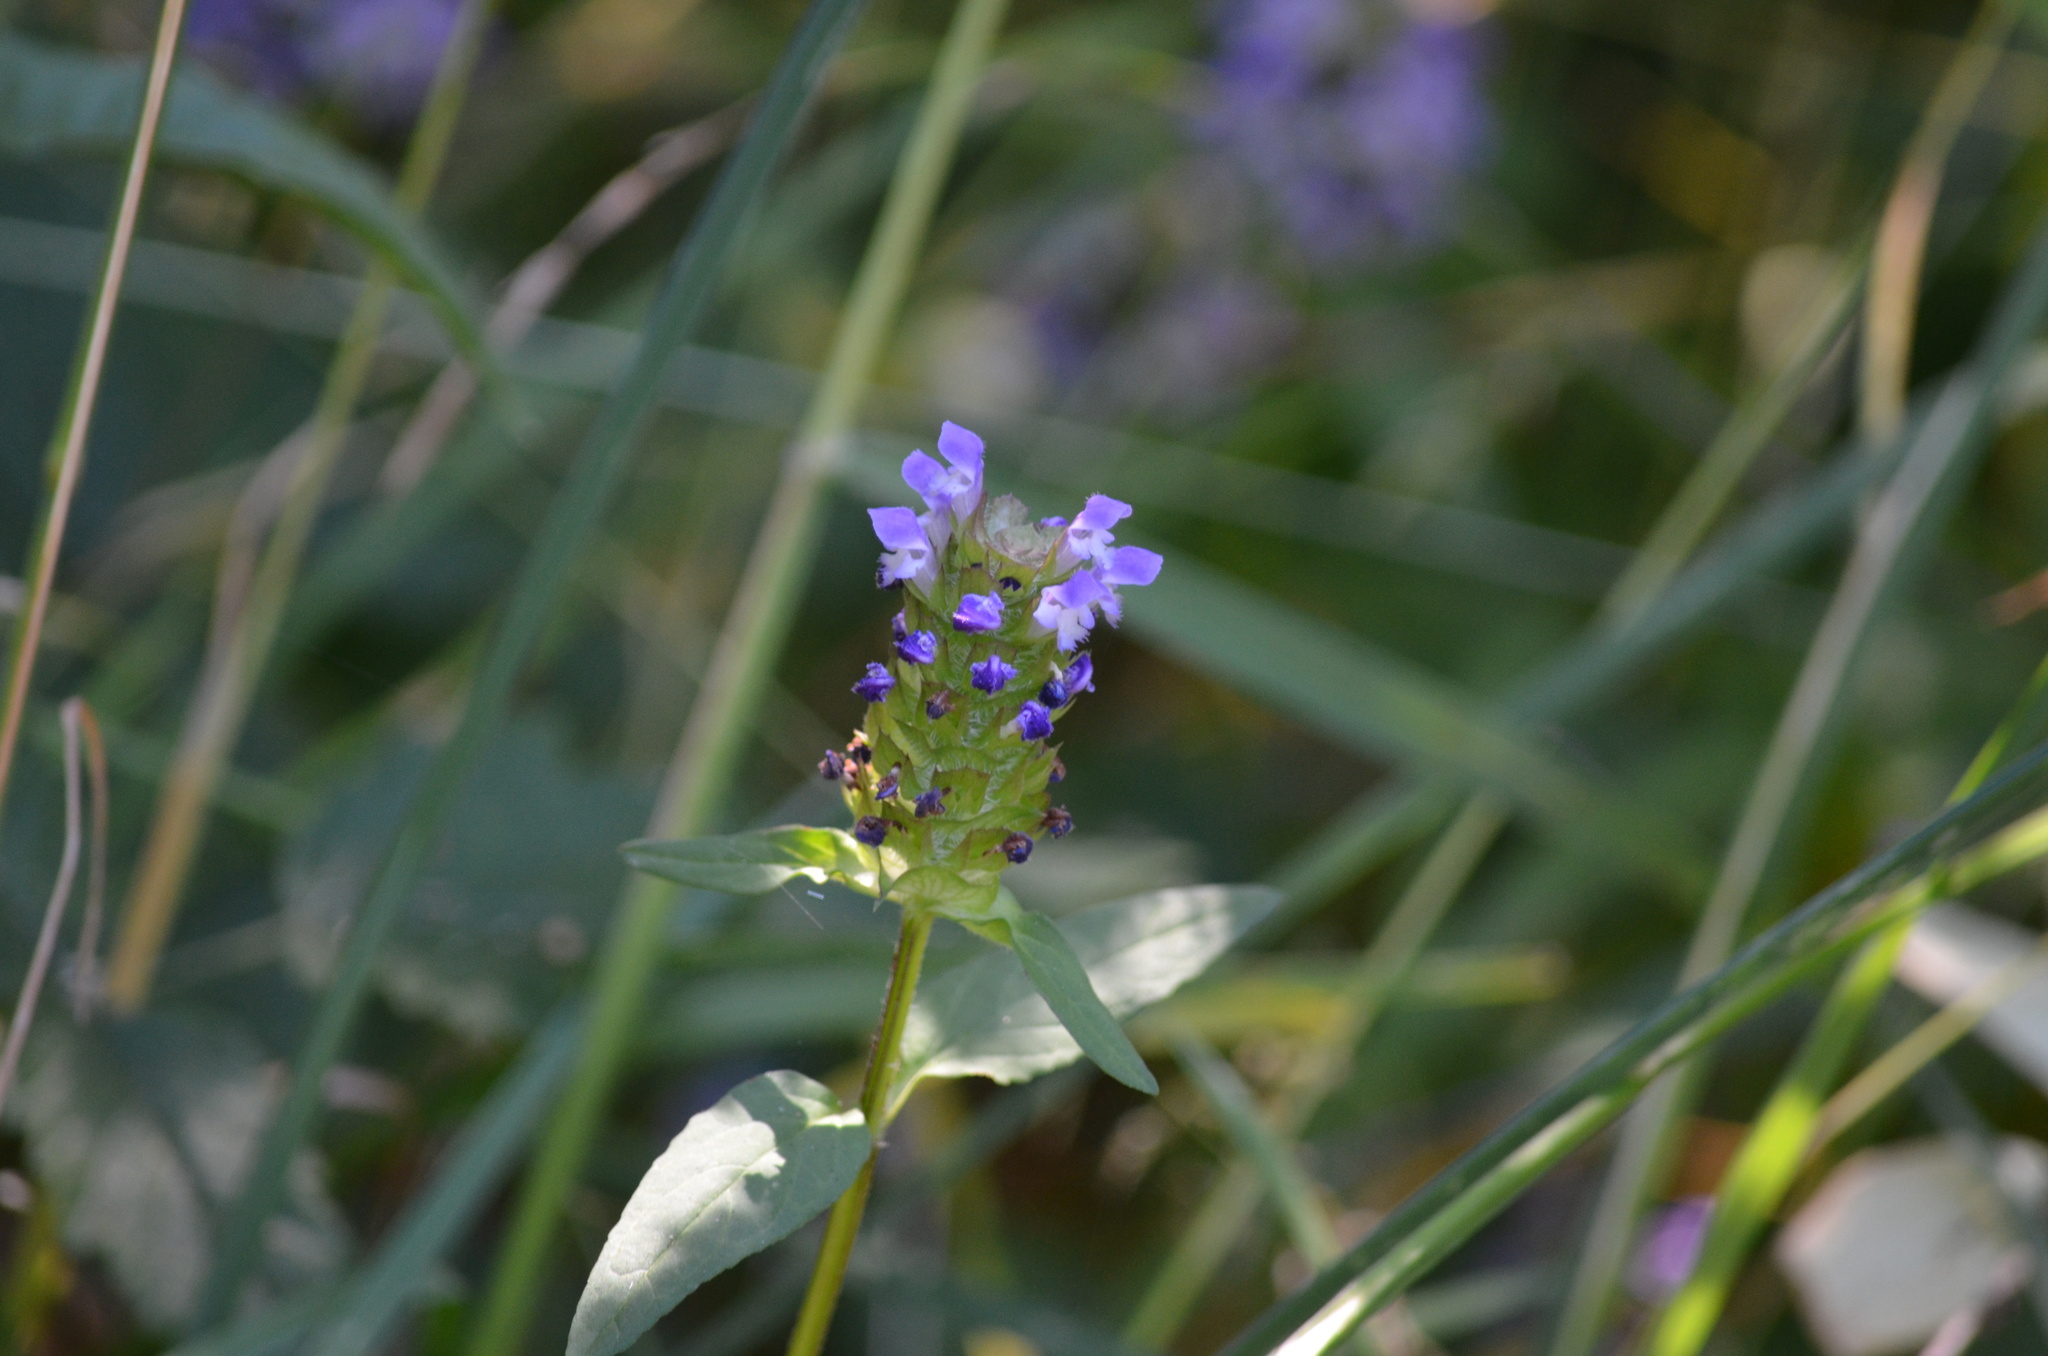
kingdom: Plantae
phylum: Tracheophyta
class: Magnoliopsida
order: Lamiales
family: Lamiaceae
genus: Prunella
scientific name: Prunella vulgaris
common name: Heal-all
